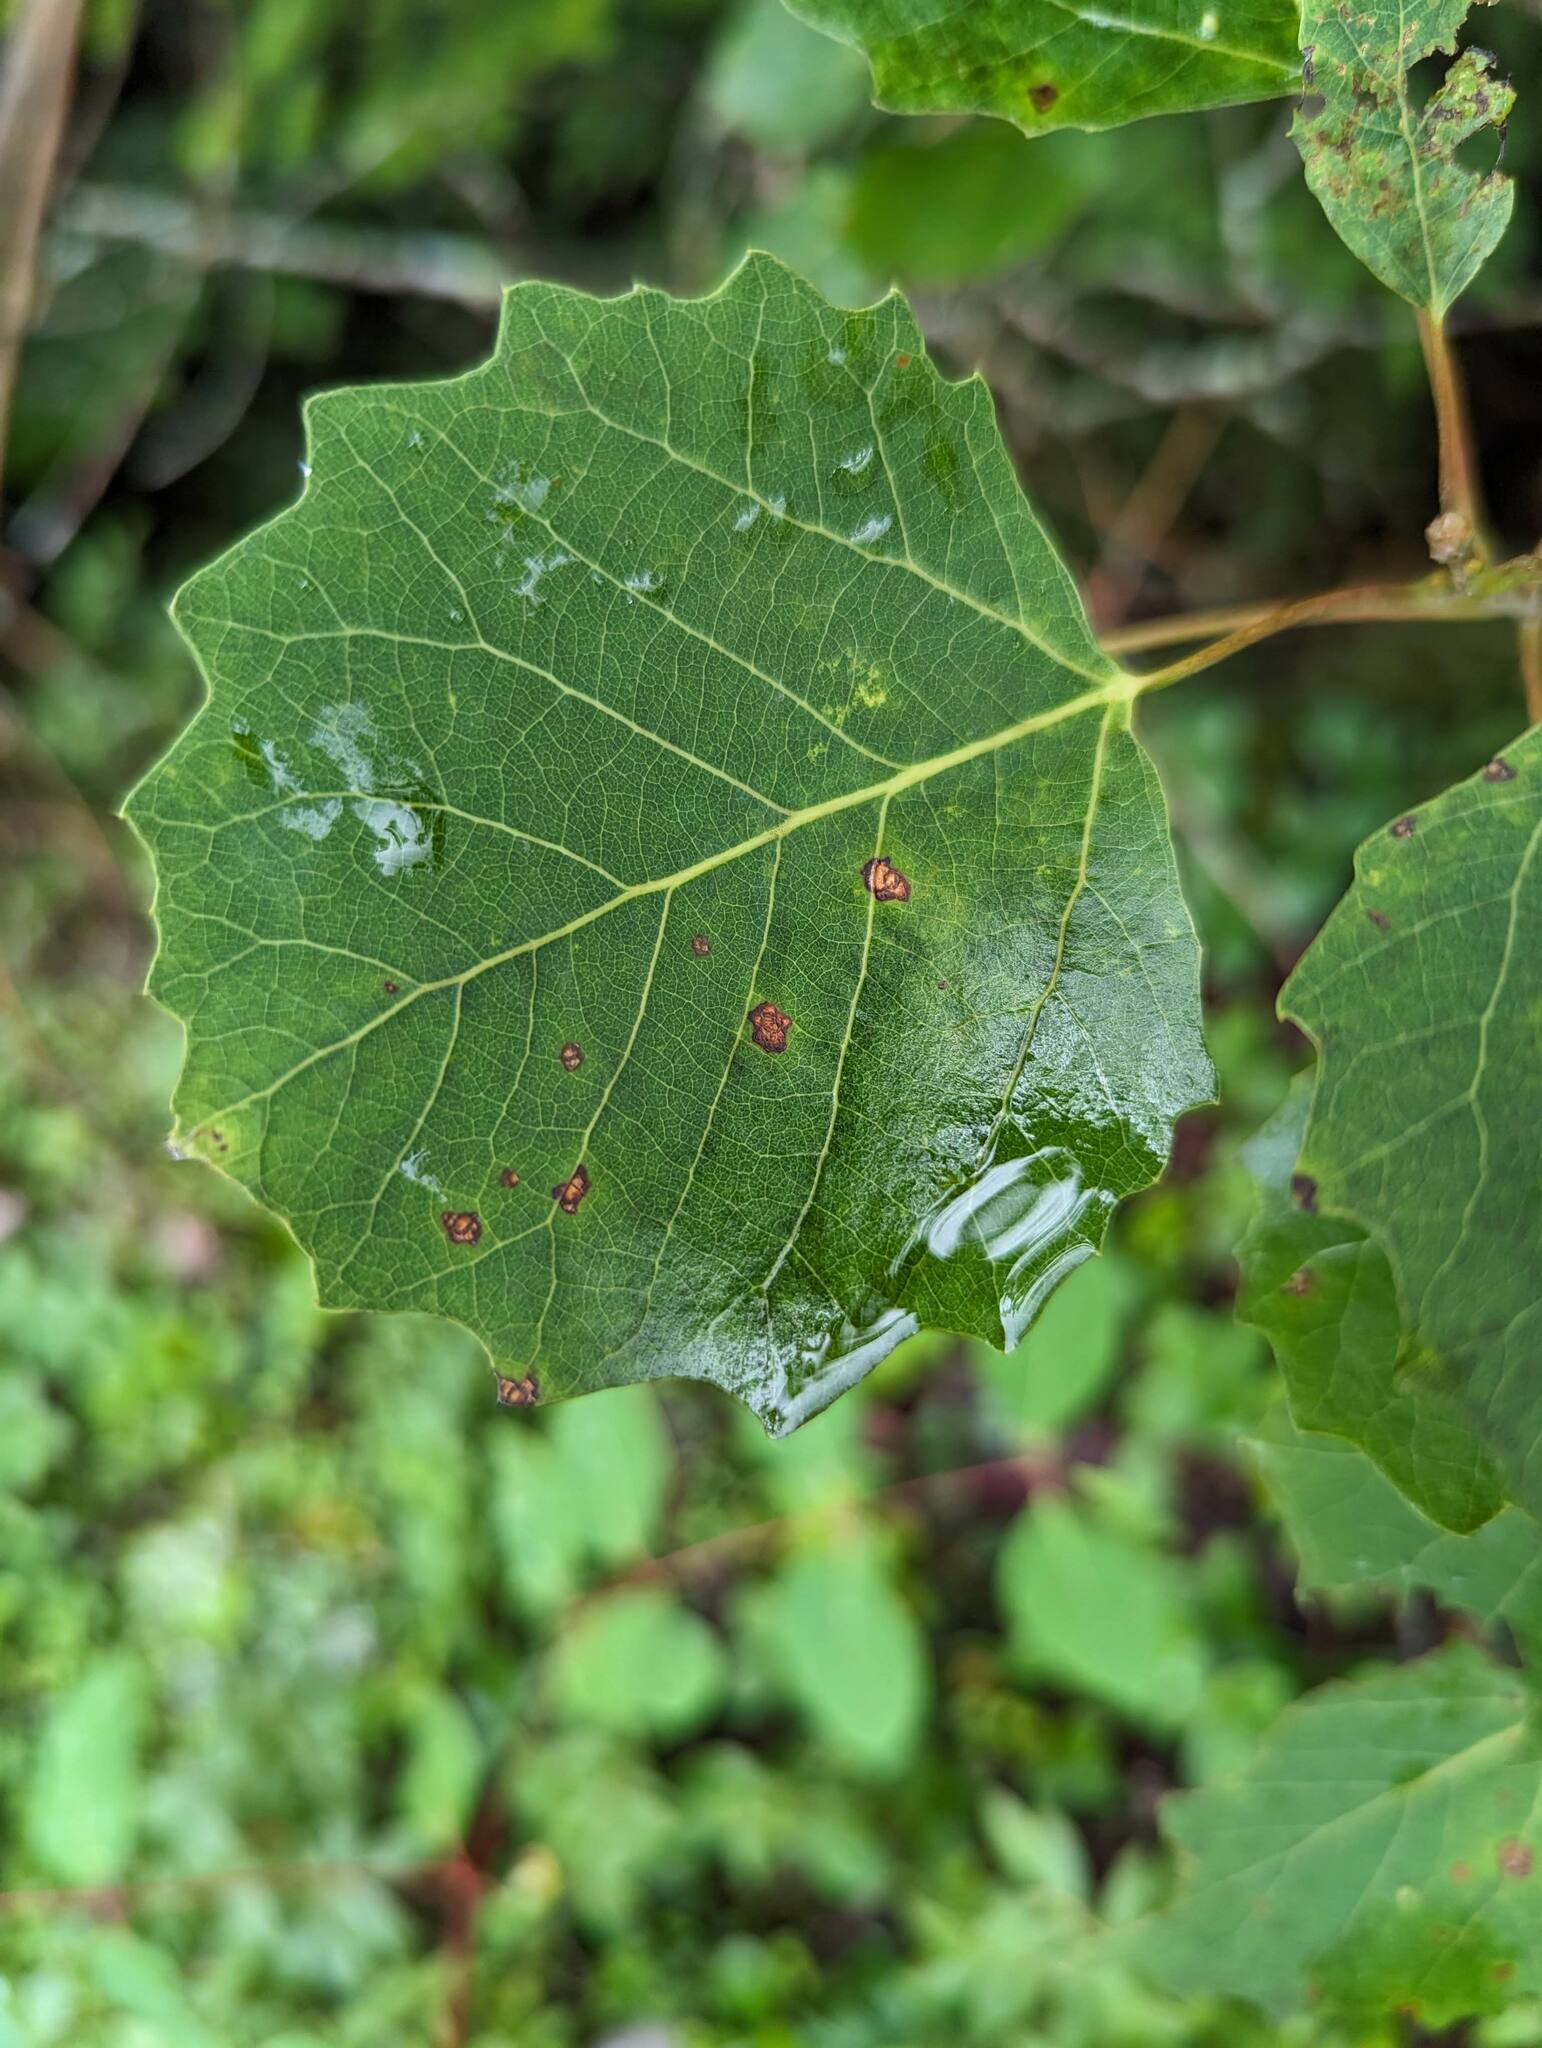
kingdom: Plantae
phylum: Tracheophyta
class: Magnoliopsida
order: Malpighiales
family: Salicaceae
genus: Populus
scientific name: Populus grandidentata
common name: Bigtooth aspen
